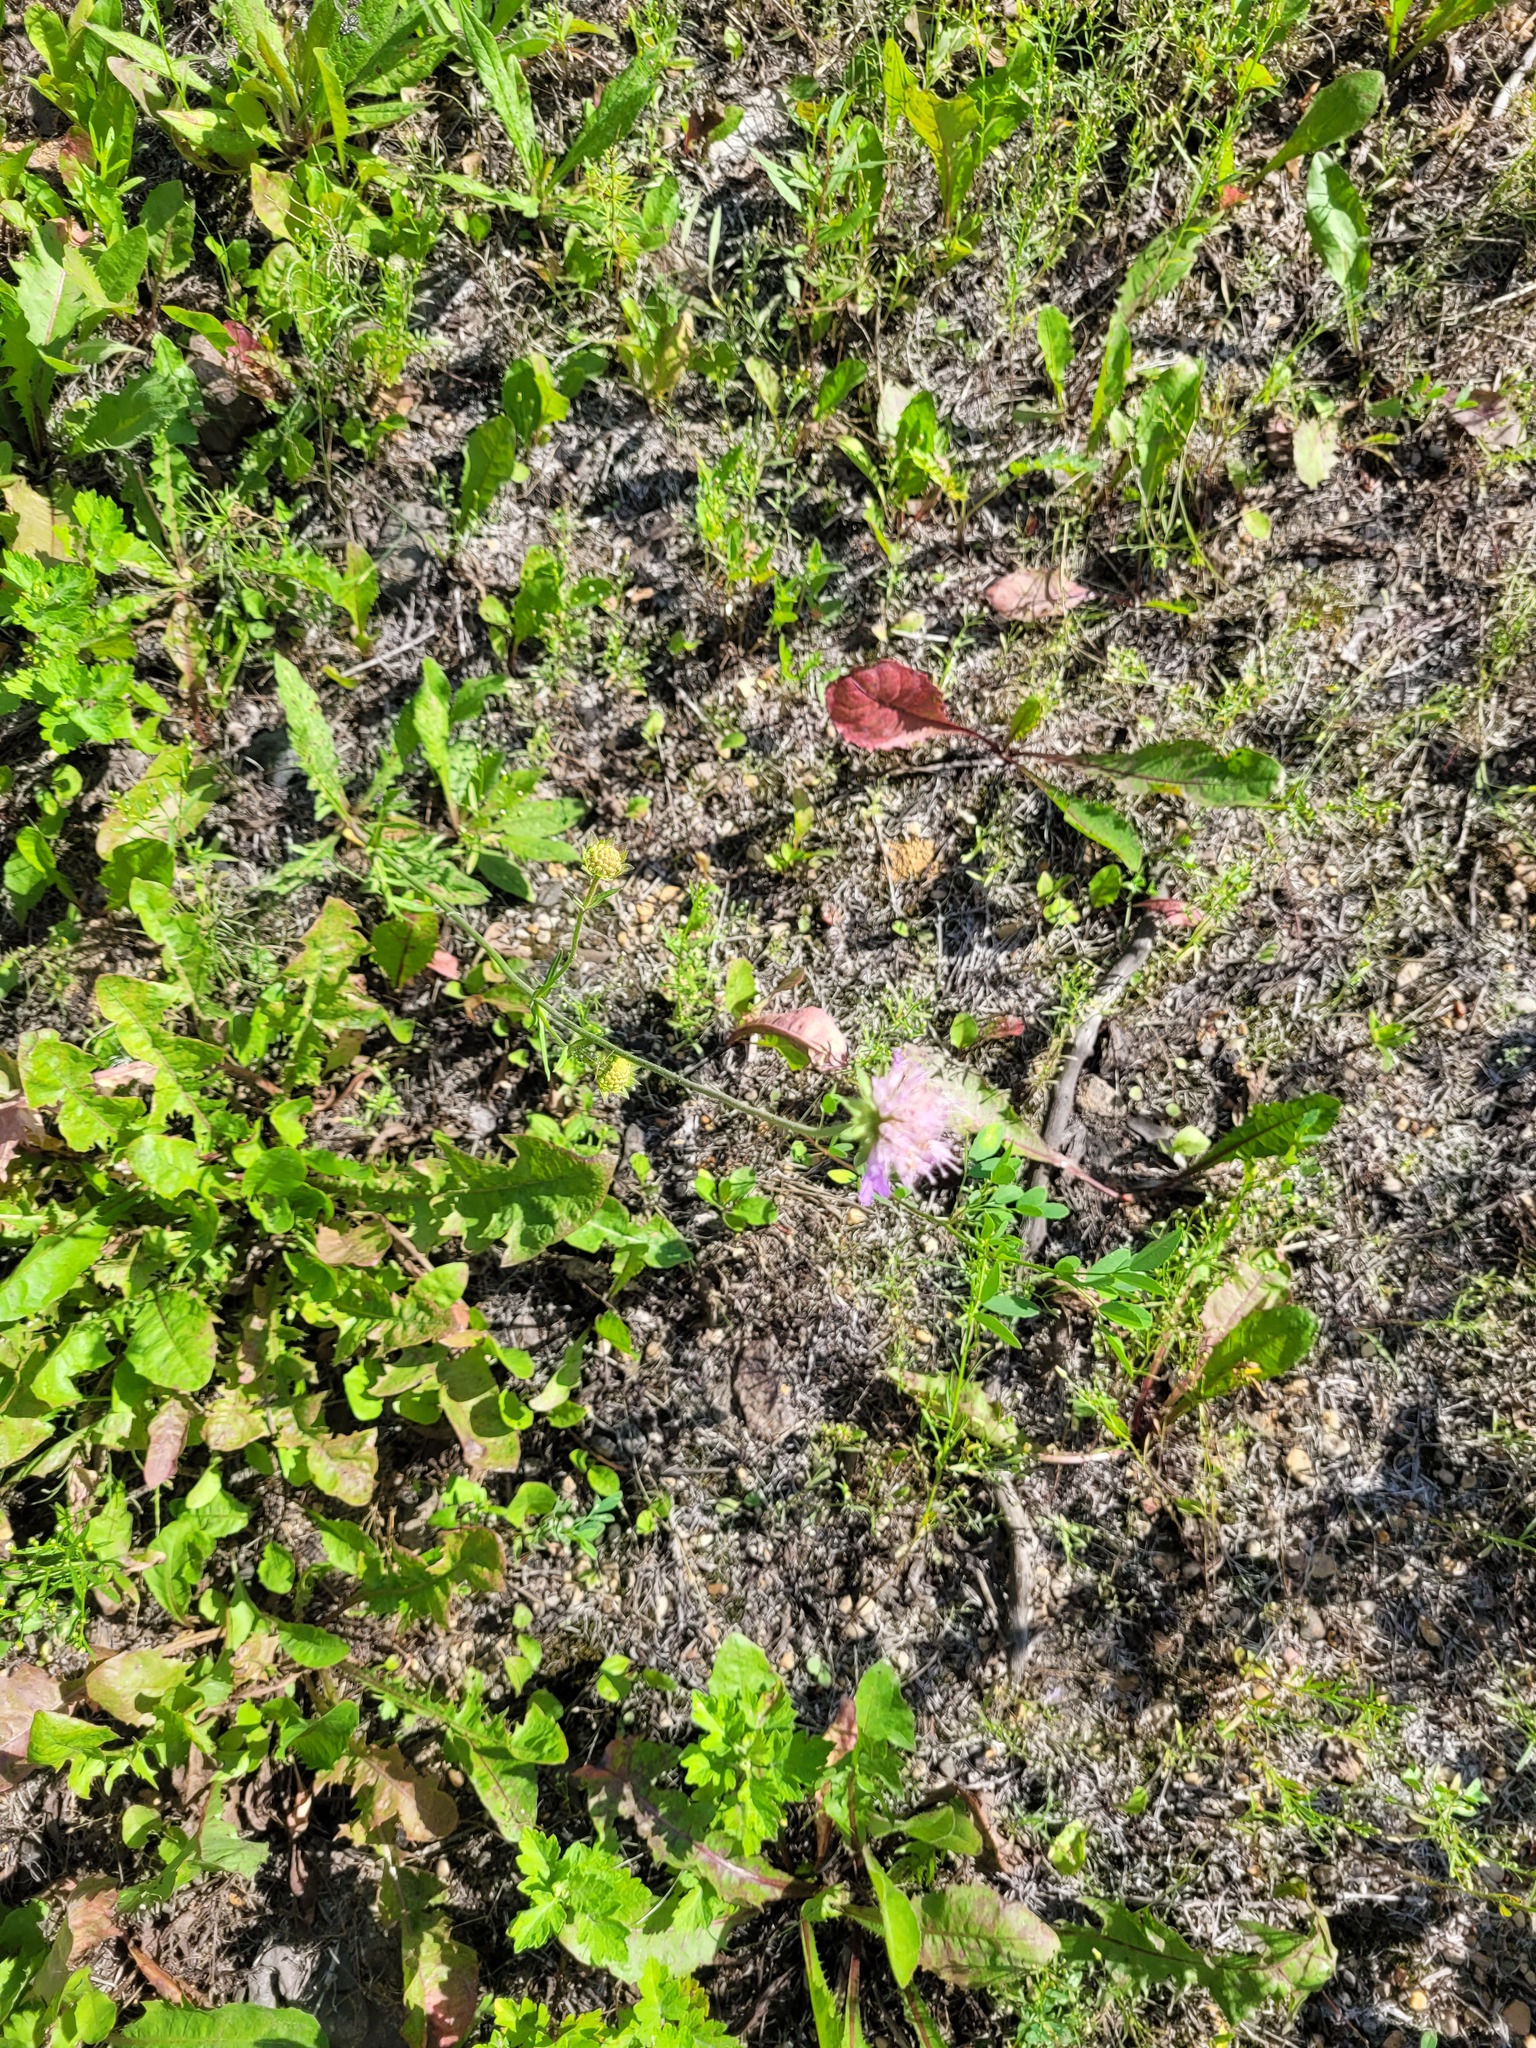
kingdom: Plantae
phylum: Tracheophyta
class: Magnoliopsida
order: Dipsacales
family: Caprifoliaceae
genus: Knautia
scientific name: Knautia arvensis
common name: Field scabiosa
